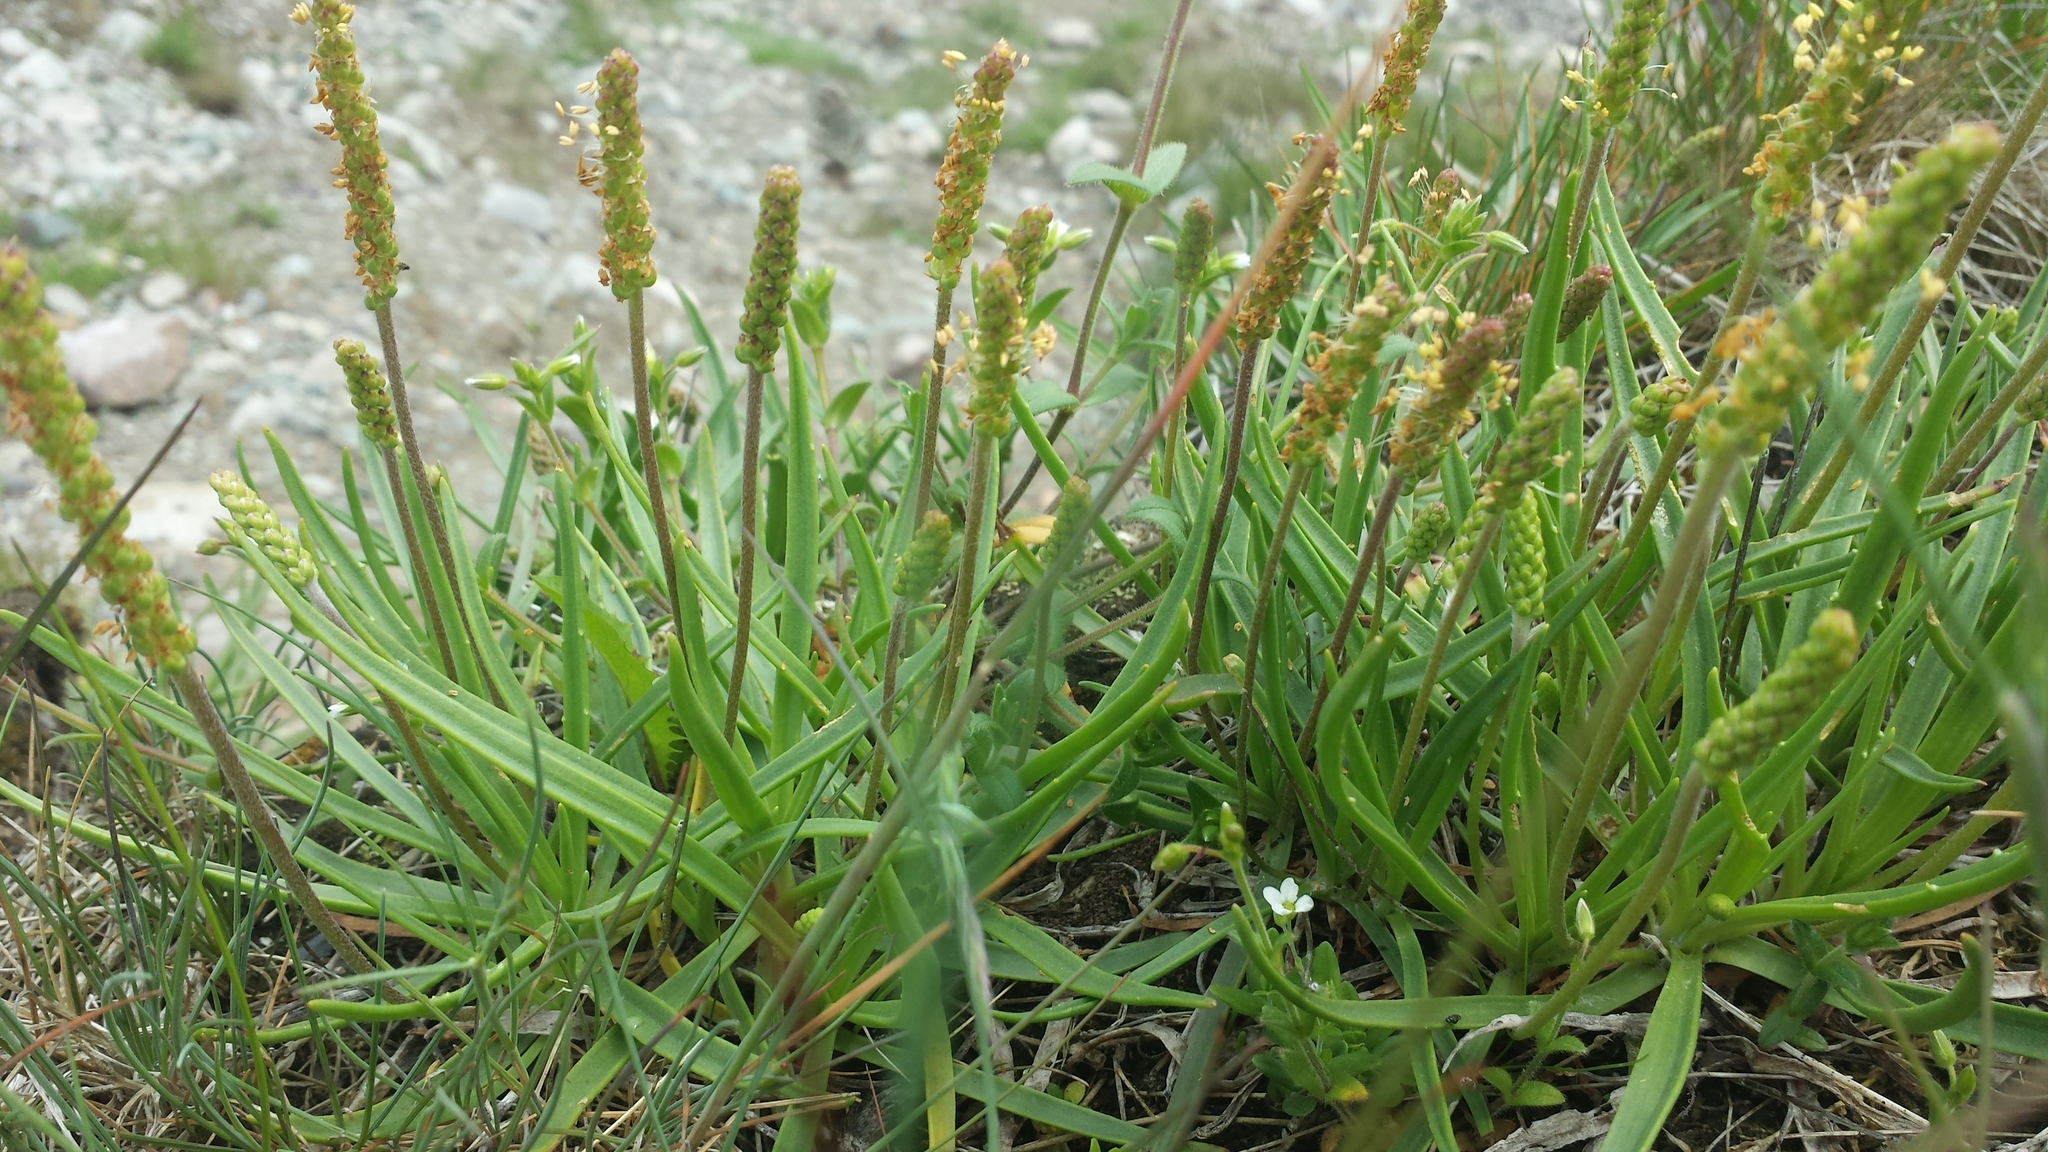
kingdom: Plantae
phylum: Tracheophyta
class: Magnoliopsida
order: Lamiales
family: Plantaginaceae
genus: Plantago
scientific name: Plantago maritima
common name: Sea plantain
